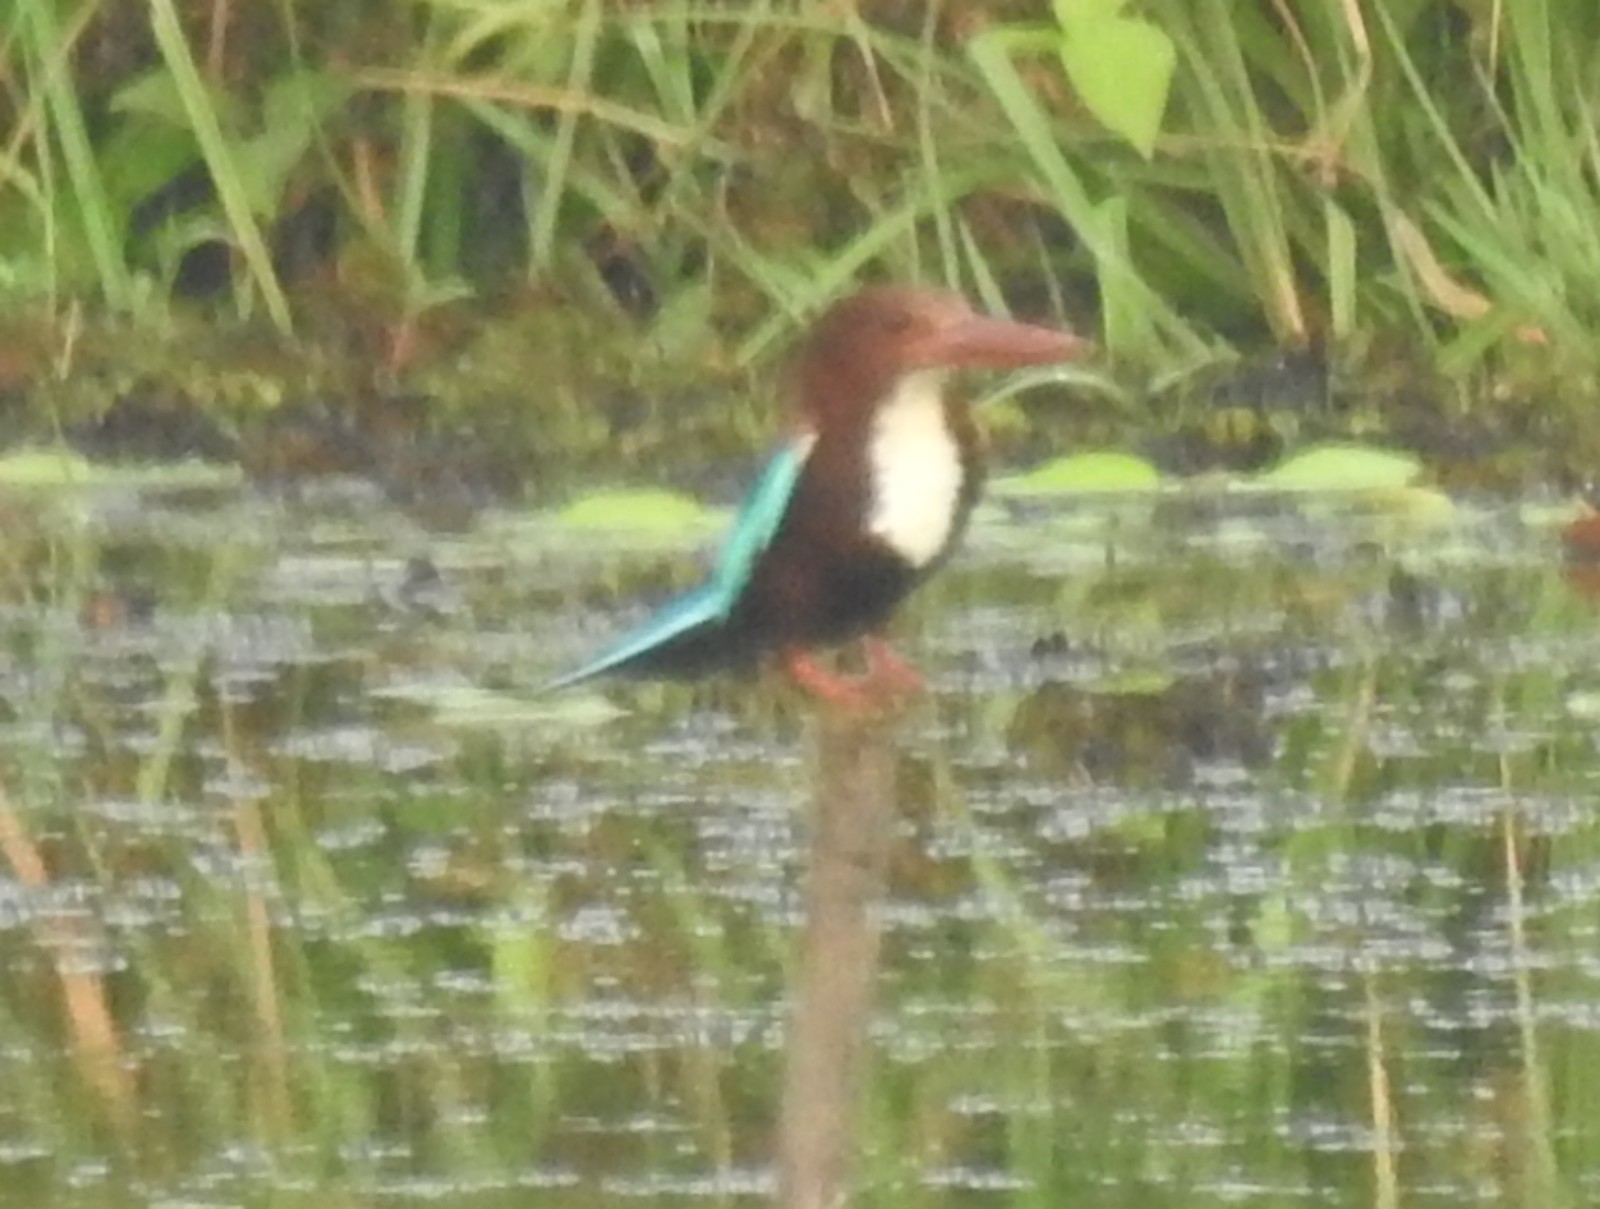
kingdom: Animalia
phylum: Chordata
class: Aves
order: Coraciiformes
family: Alcedinidae
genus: Halcyon
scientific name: Halcyon smyrnensis
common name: White-throated kingfisher
